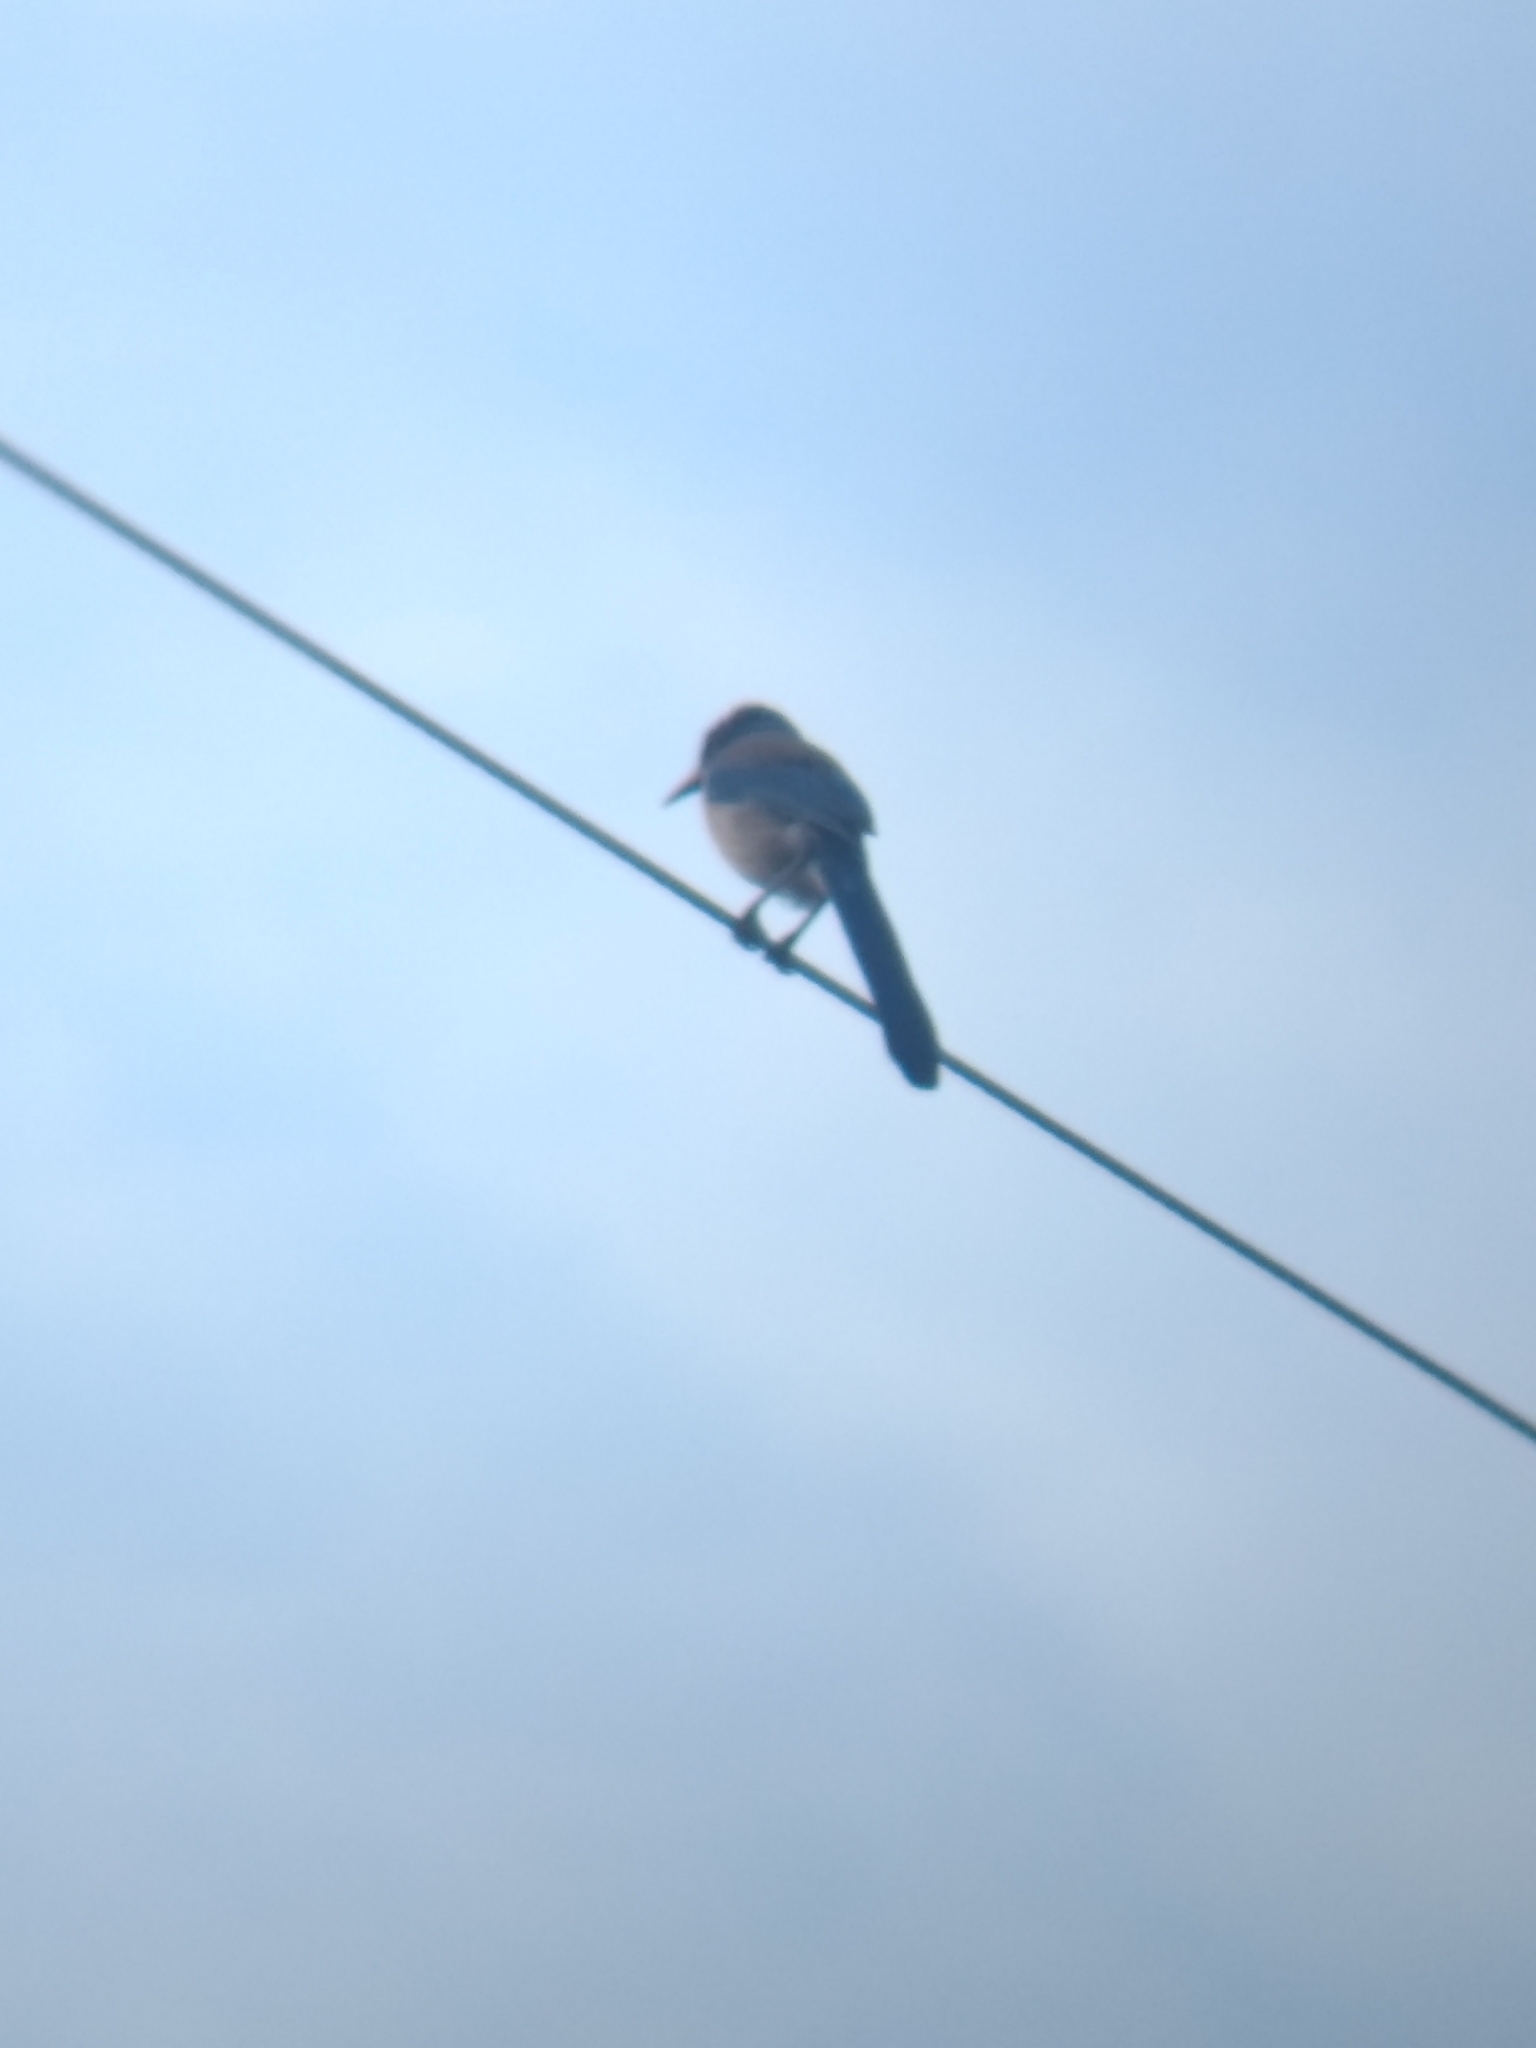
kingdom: Animalia
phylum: Chordata
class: Aves
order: Passeriformes
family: Corvidae
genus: Aphelocoma
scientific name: Aphelocoma californica
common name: California scrub-jay
